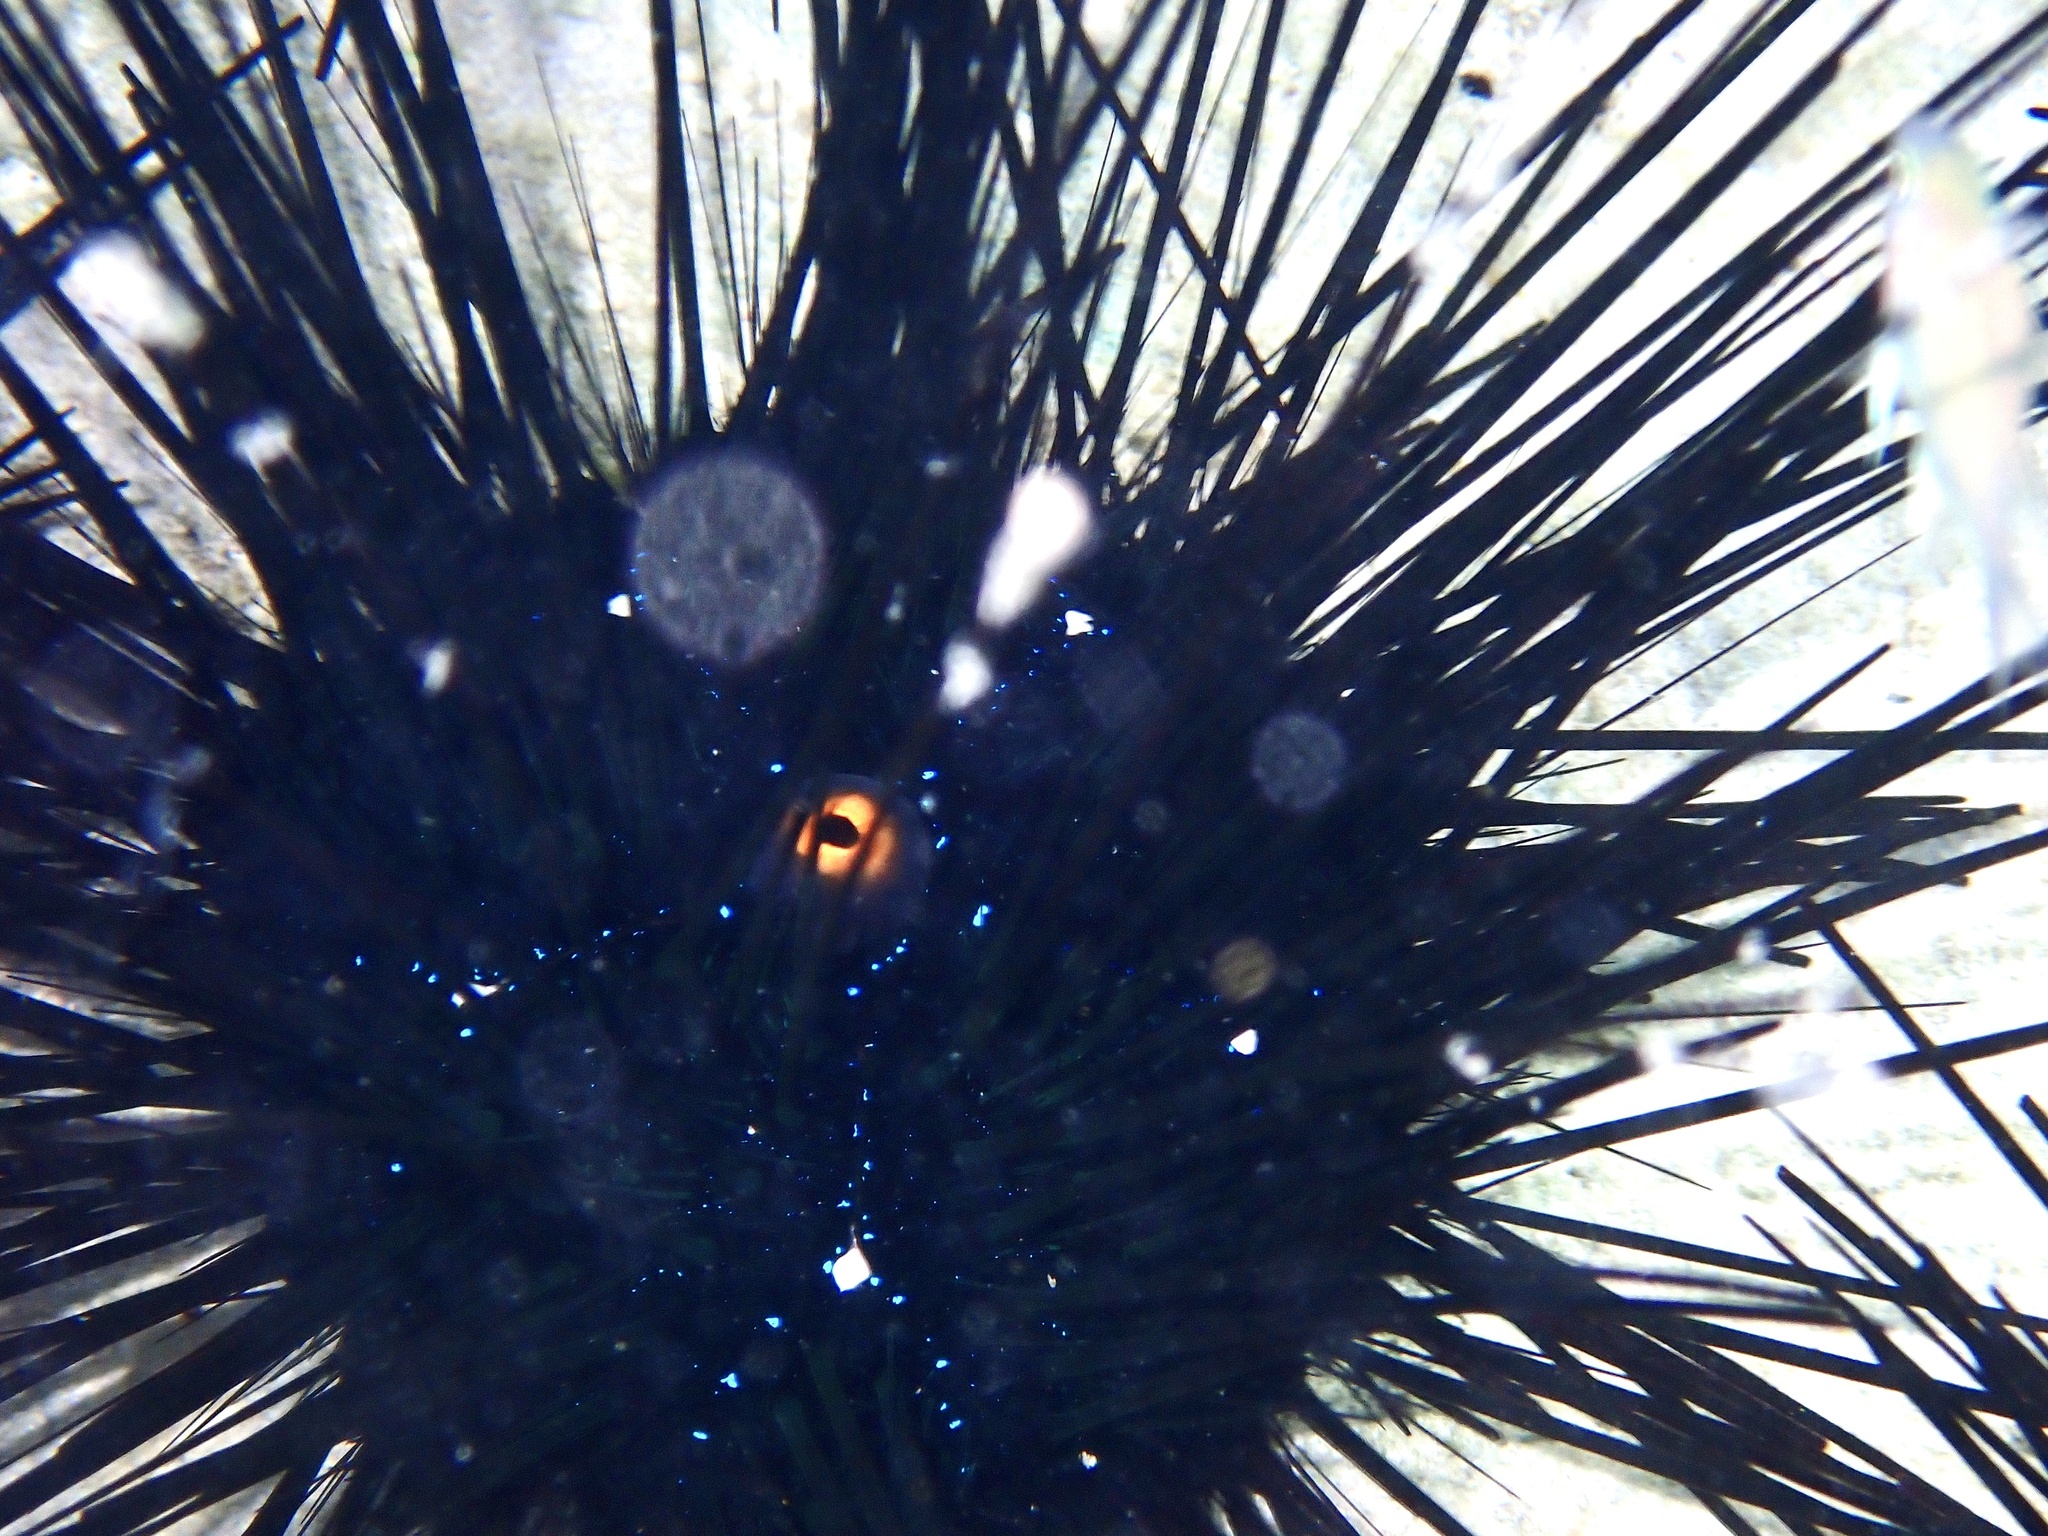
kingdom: Animalia
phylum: Echinodermata
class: Echinoidea
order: Diadematoida
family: Diadematidae
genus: Diadema
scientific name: Diadema setosum
